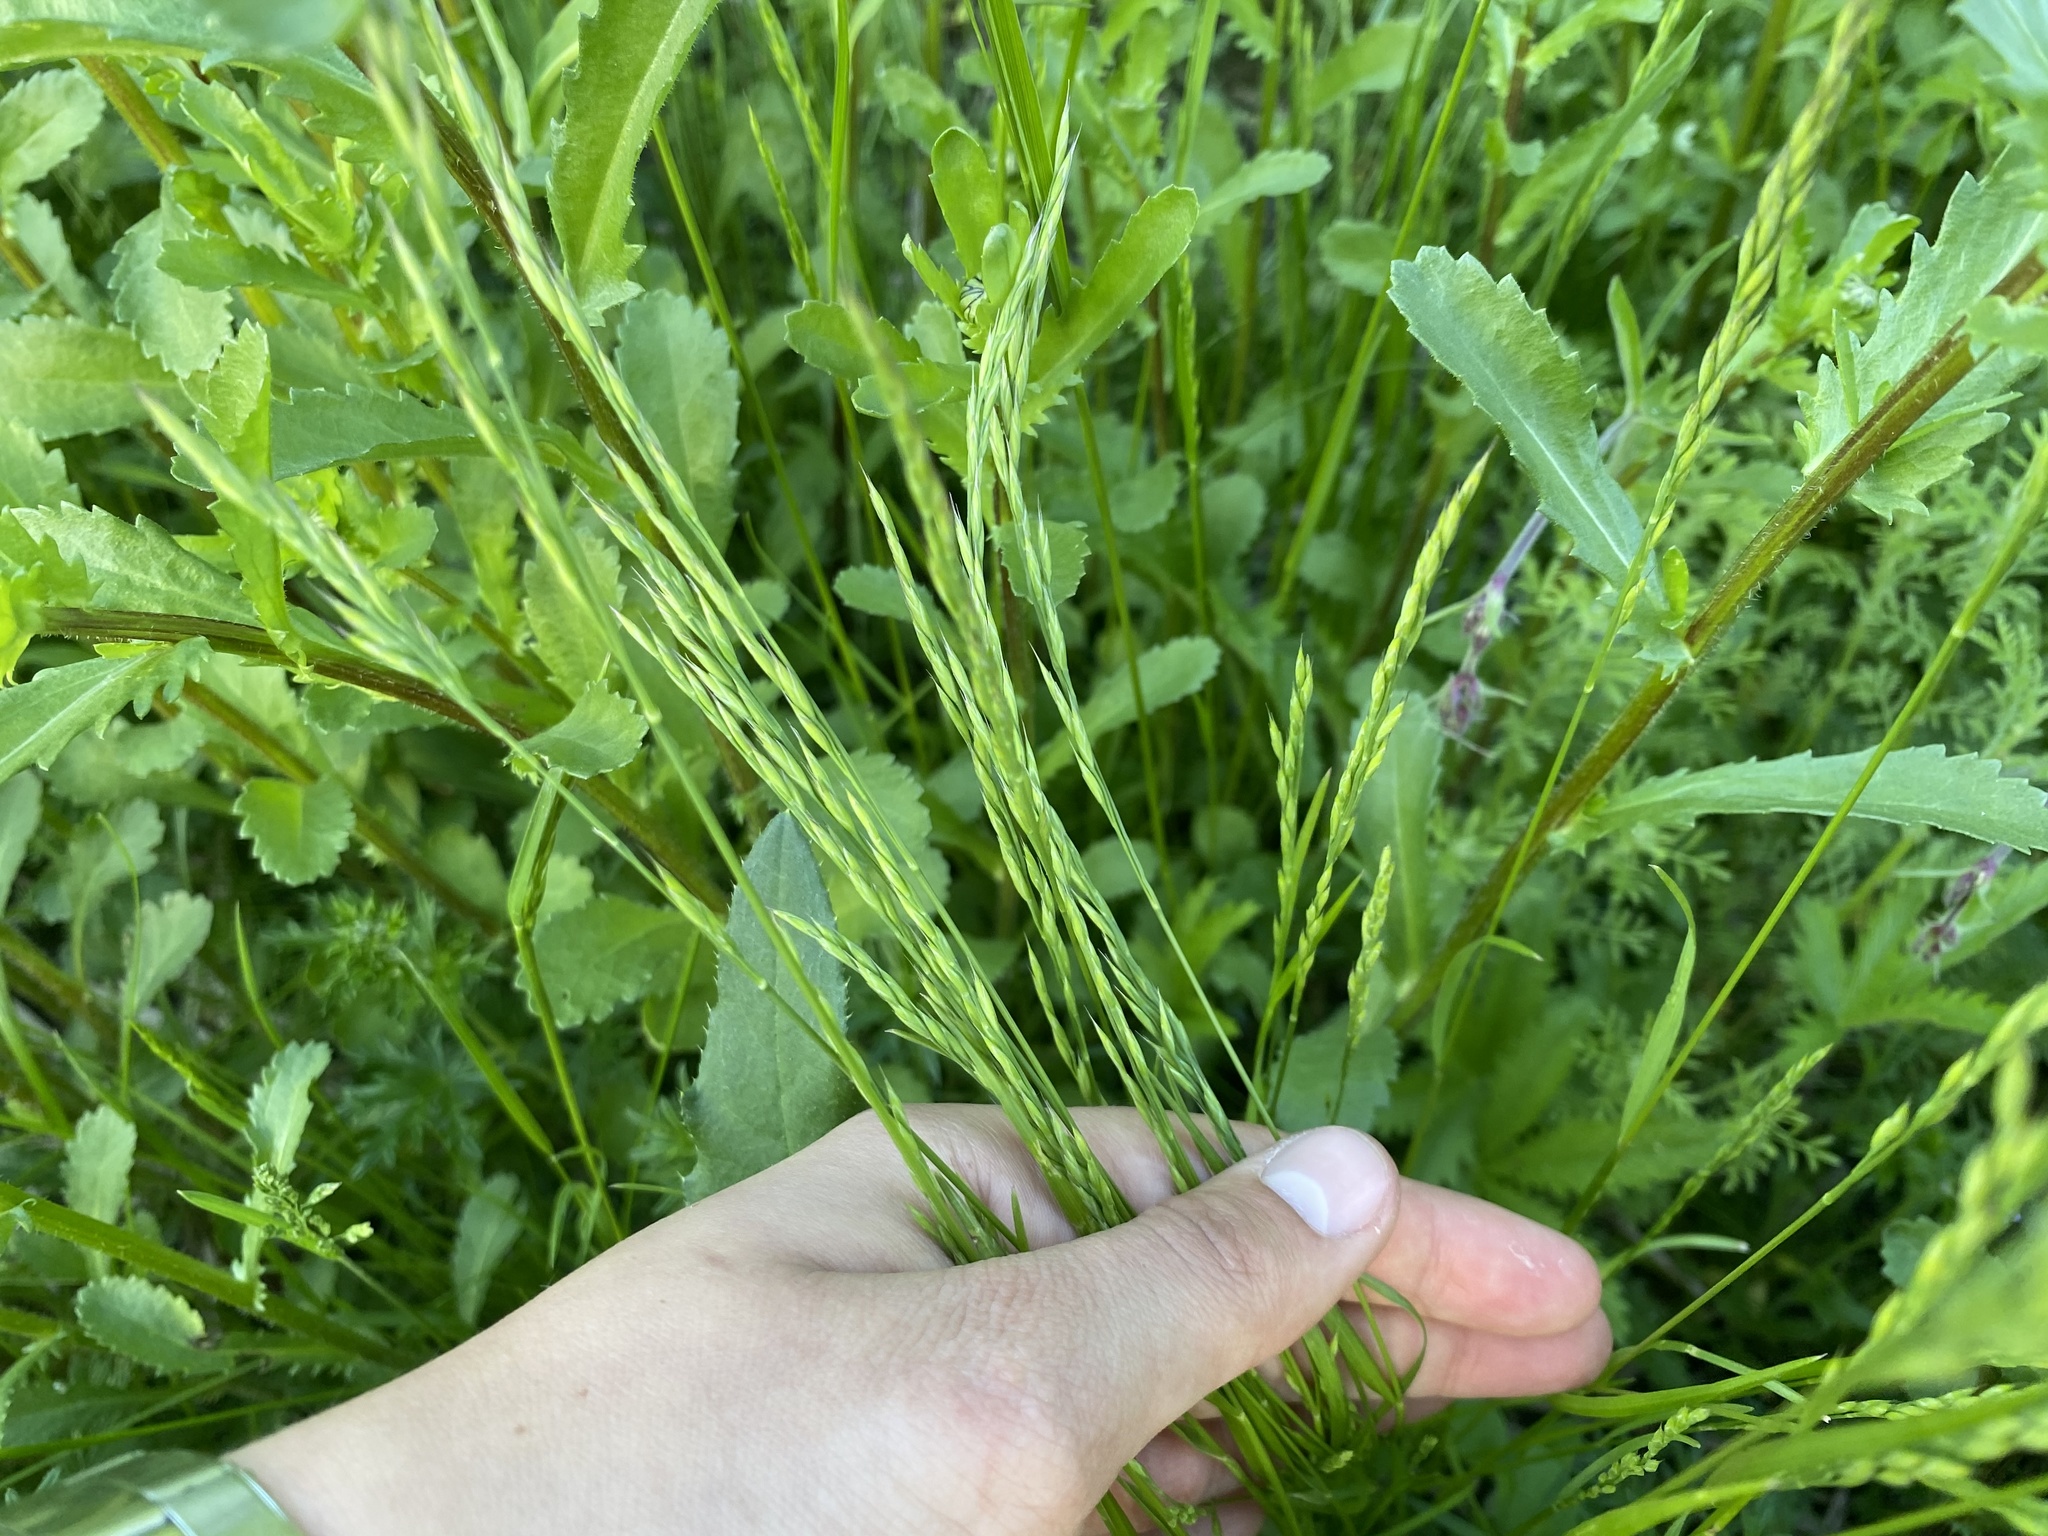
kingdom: Plantae
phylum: Tracheophyta
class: Liliopsida
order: Poales
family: Poaceae
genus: Bromus
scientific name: Bromus hordeaceus
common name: Soft brome
